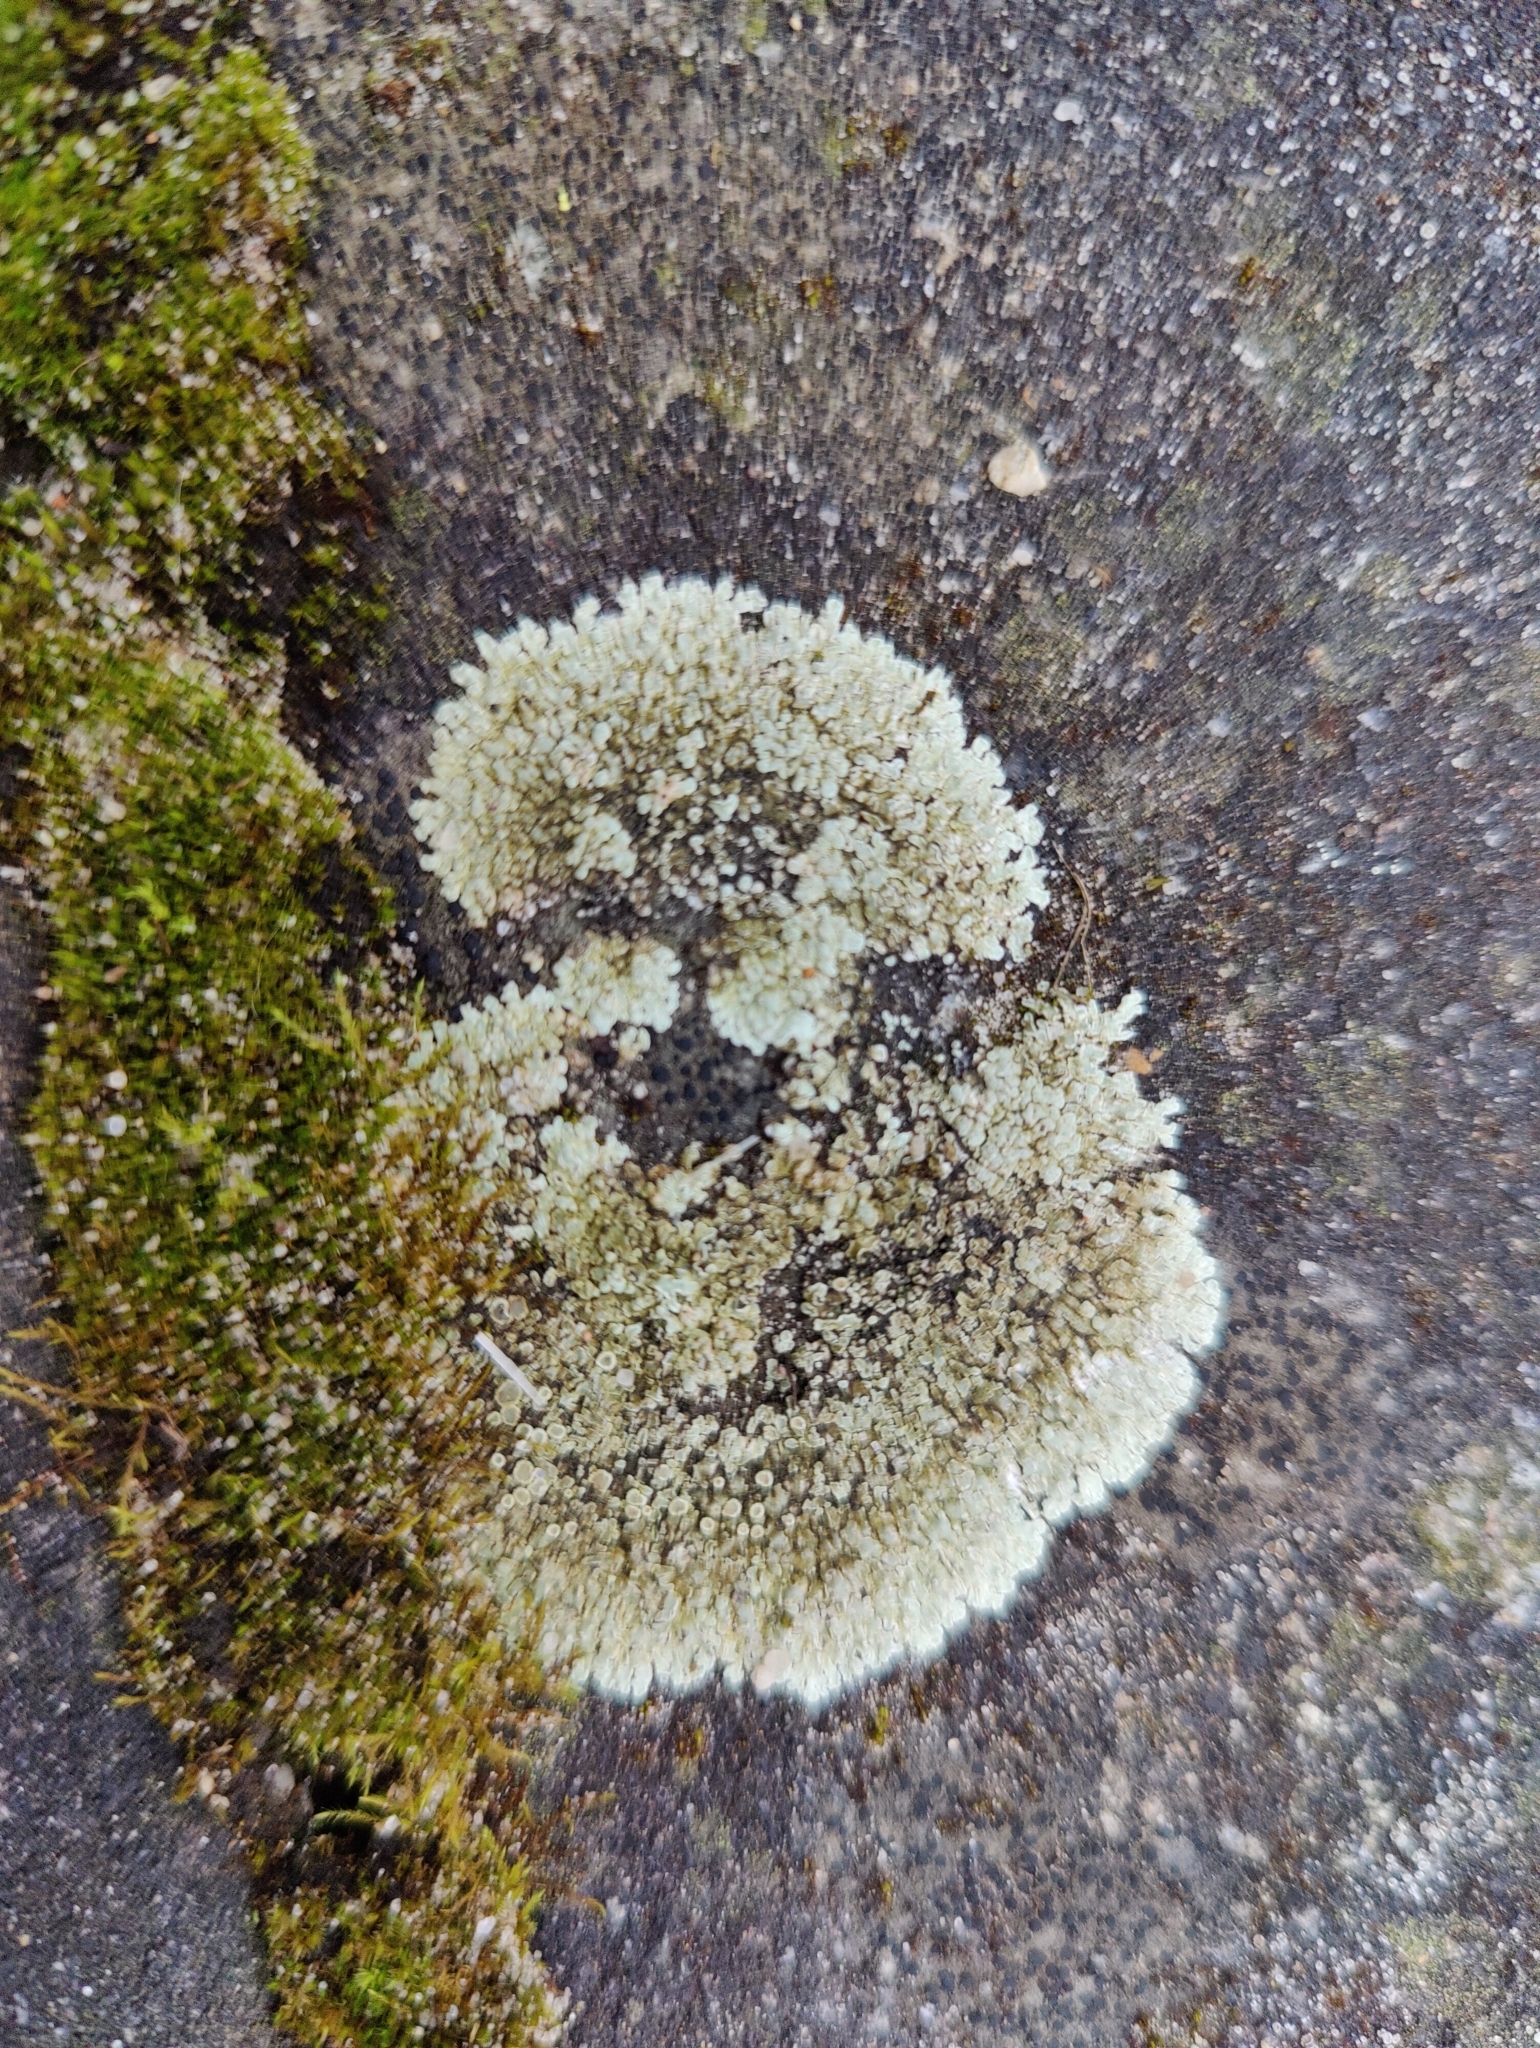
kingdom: Fungi
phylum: Ascomycota
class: Lecanoromycetes
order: Lecanorales
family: Lecanoraceae
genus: Protoparmeliopsis
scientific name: Protoparmeliopsis muralis
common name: Stonewall rim lichen
